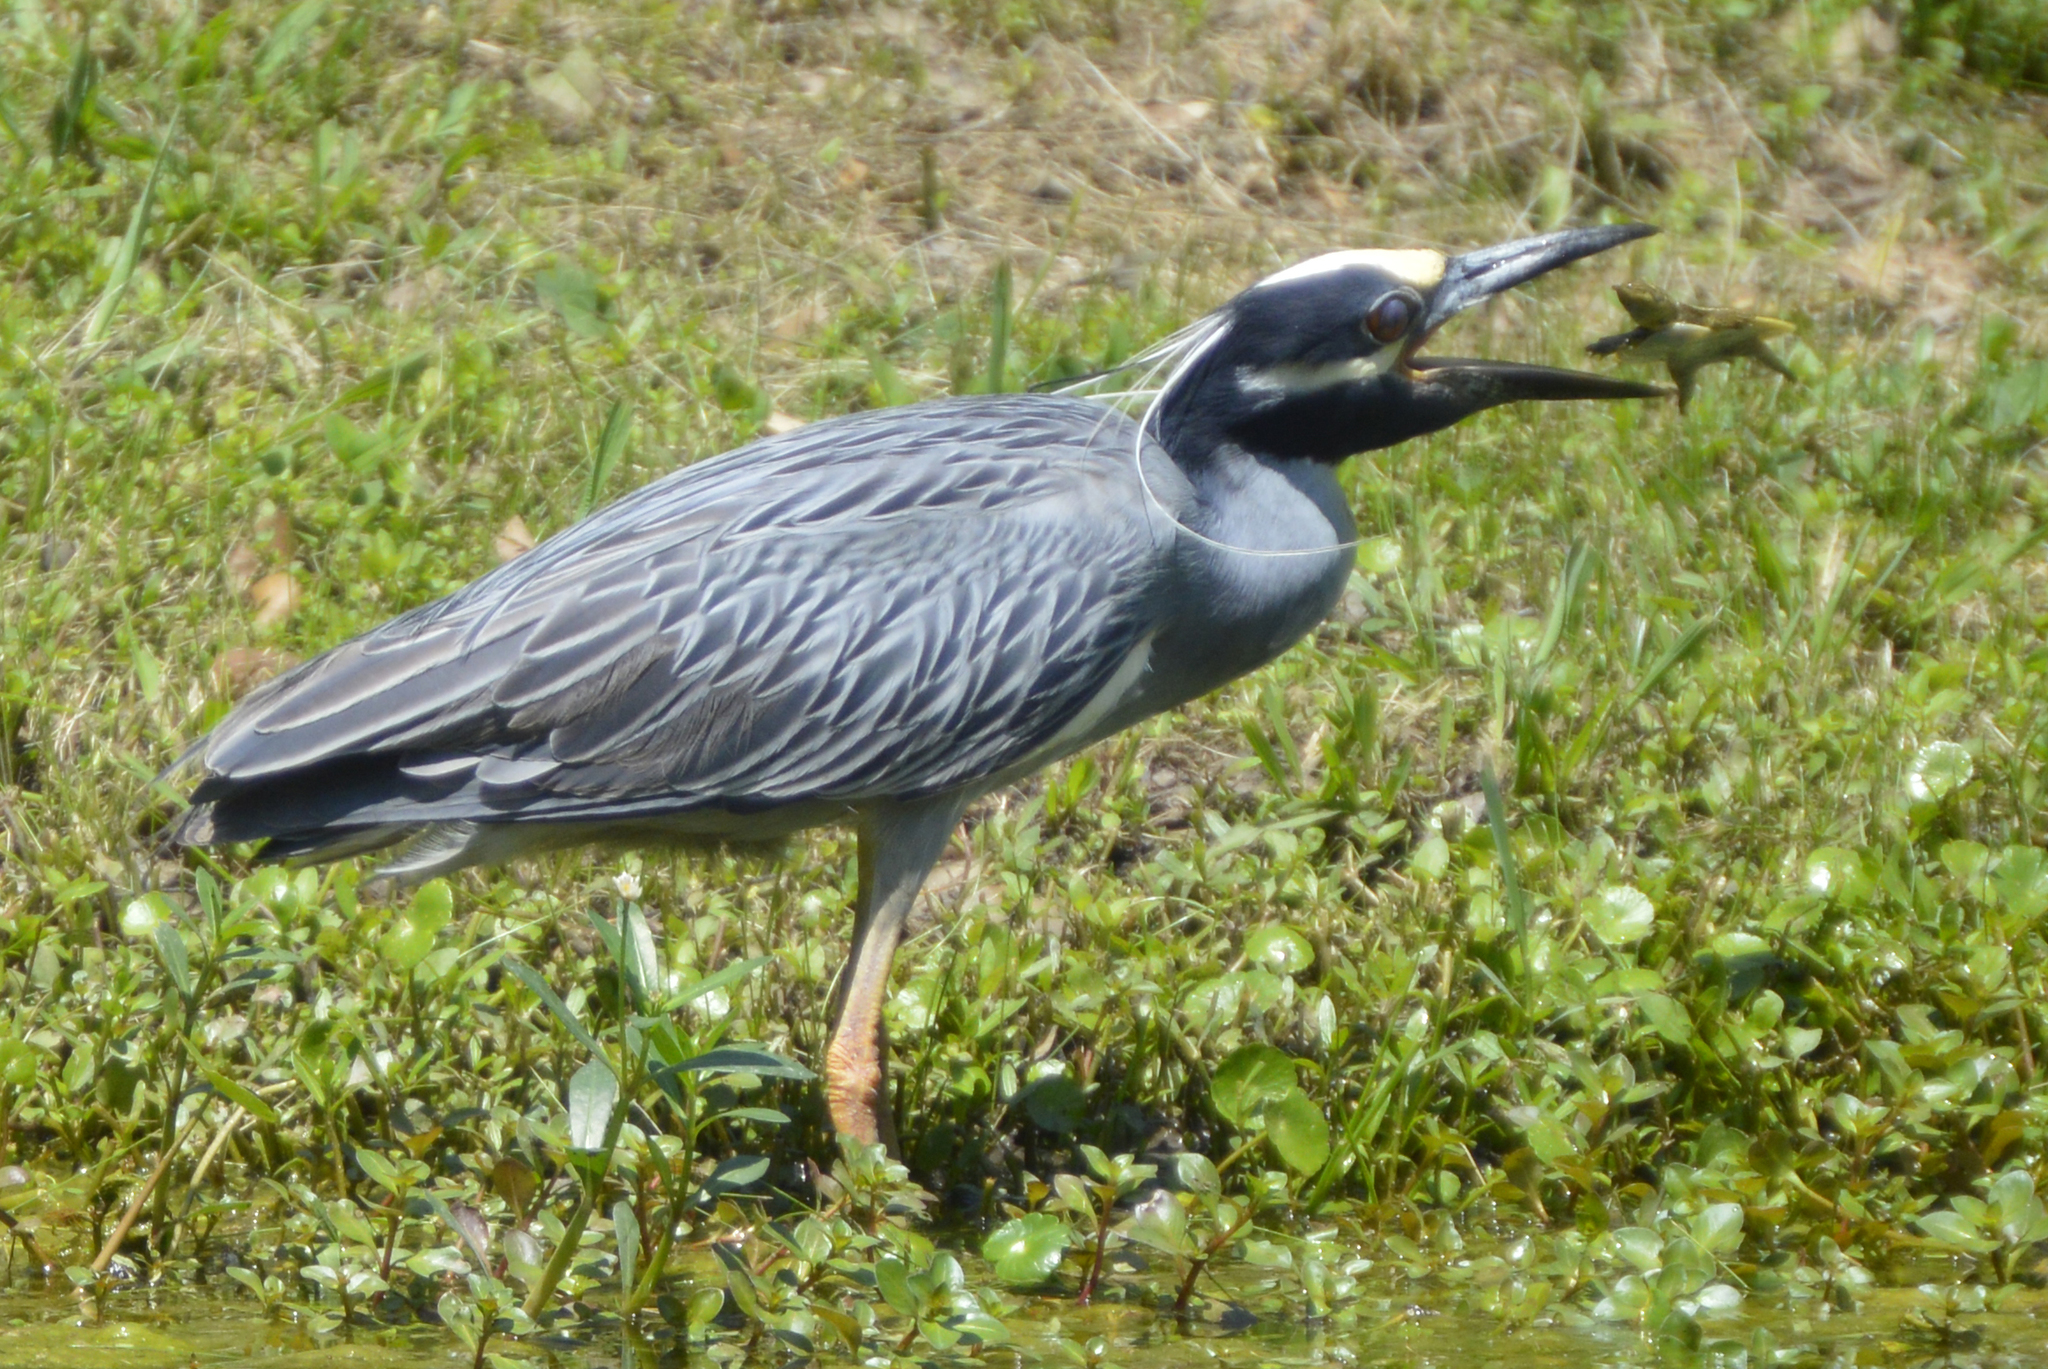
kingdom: Animalia
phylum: Chordata
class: Aves
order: Pelecaniformes
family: Ardeidae
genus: Nyctanassa
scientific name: Nyctanassa violacea
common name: Yellow-crowned night heron
